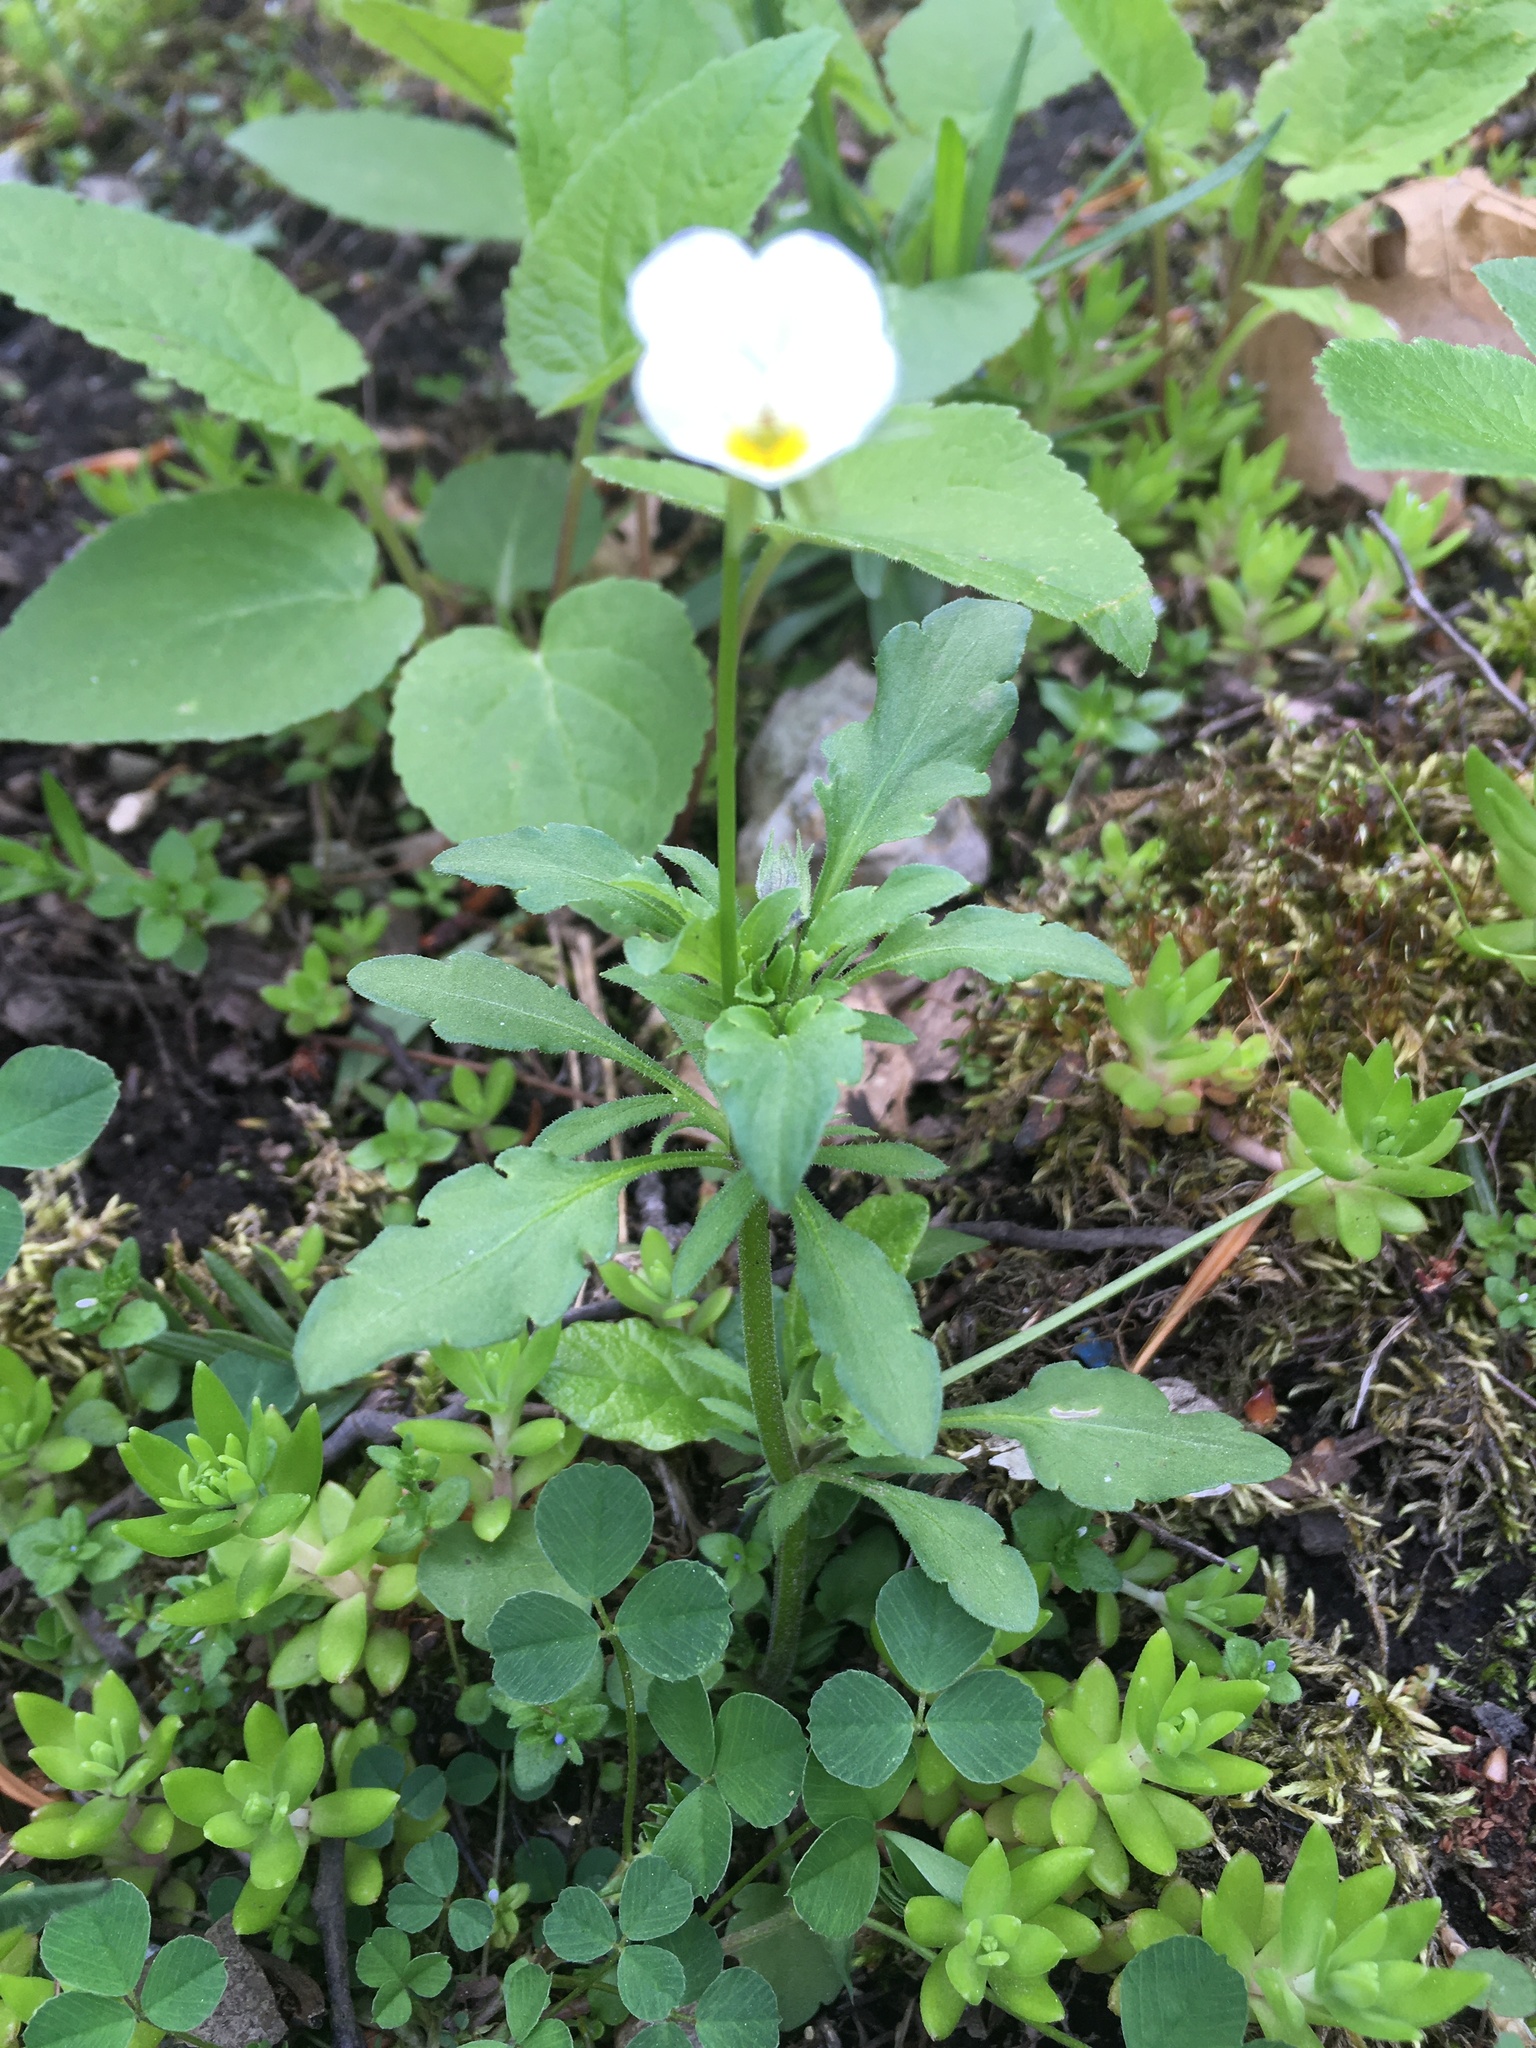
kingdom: Plantae
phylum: Tracheophyta
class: Magnoliopsida
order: Malpighiales
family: Violaceae
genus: Viola
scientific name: Viola arvensis
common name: Field pansy
